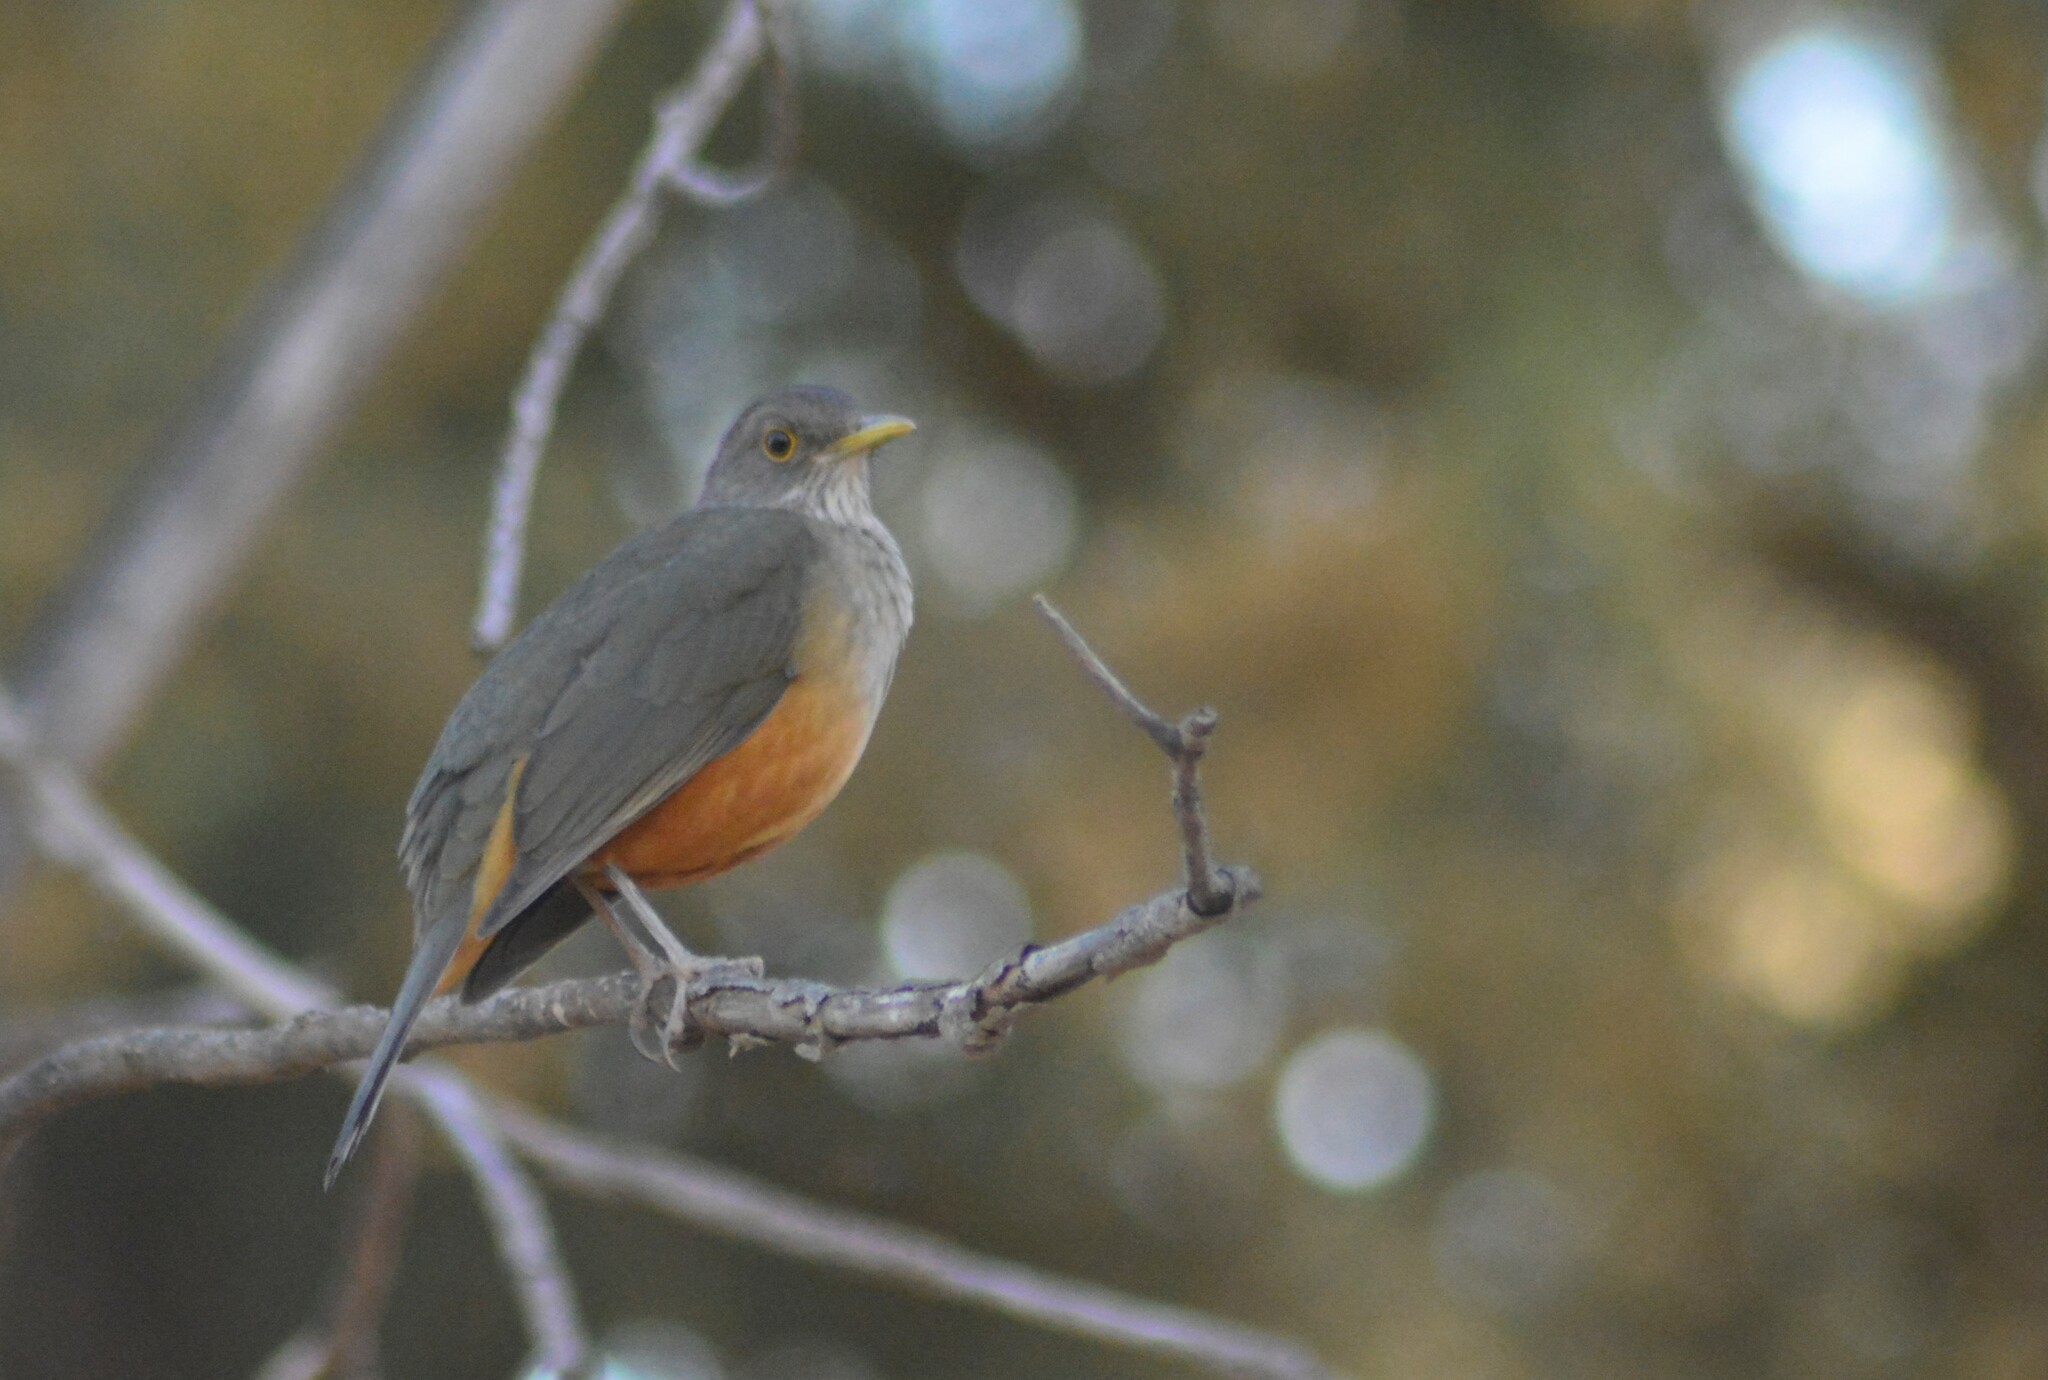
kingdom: Animalia
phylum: Chordata
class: Aves
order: Passeriformes
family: Turdidae
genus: Turdus
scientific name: Turdus rufiventris
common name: Rufous-bellied thrush
